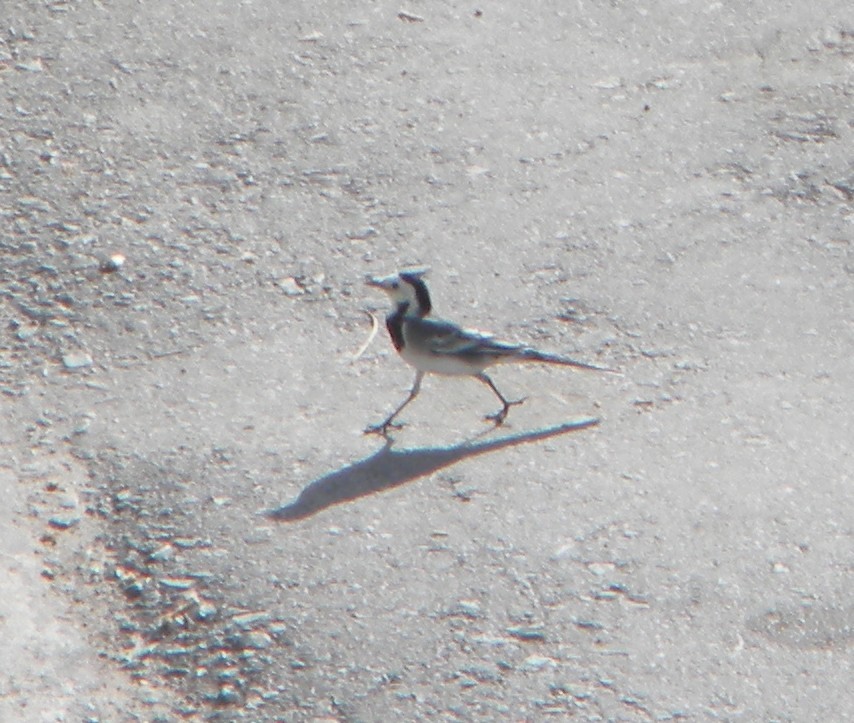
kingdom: Animalia
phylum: Chordata
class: Aves
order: Passeriformes
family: Motacillidae
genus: Motacilla
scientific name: Motacilla alba
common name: White wagtail
